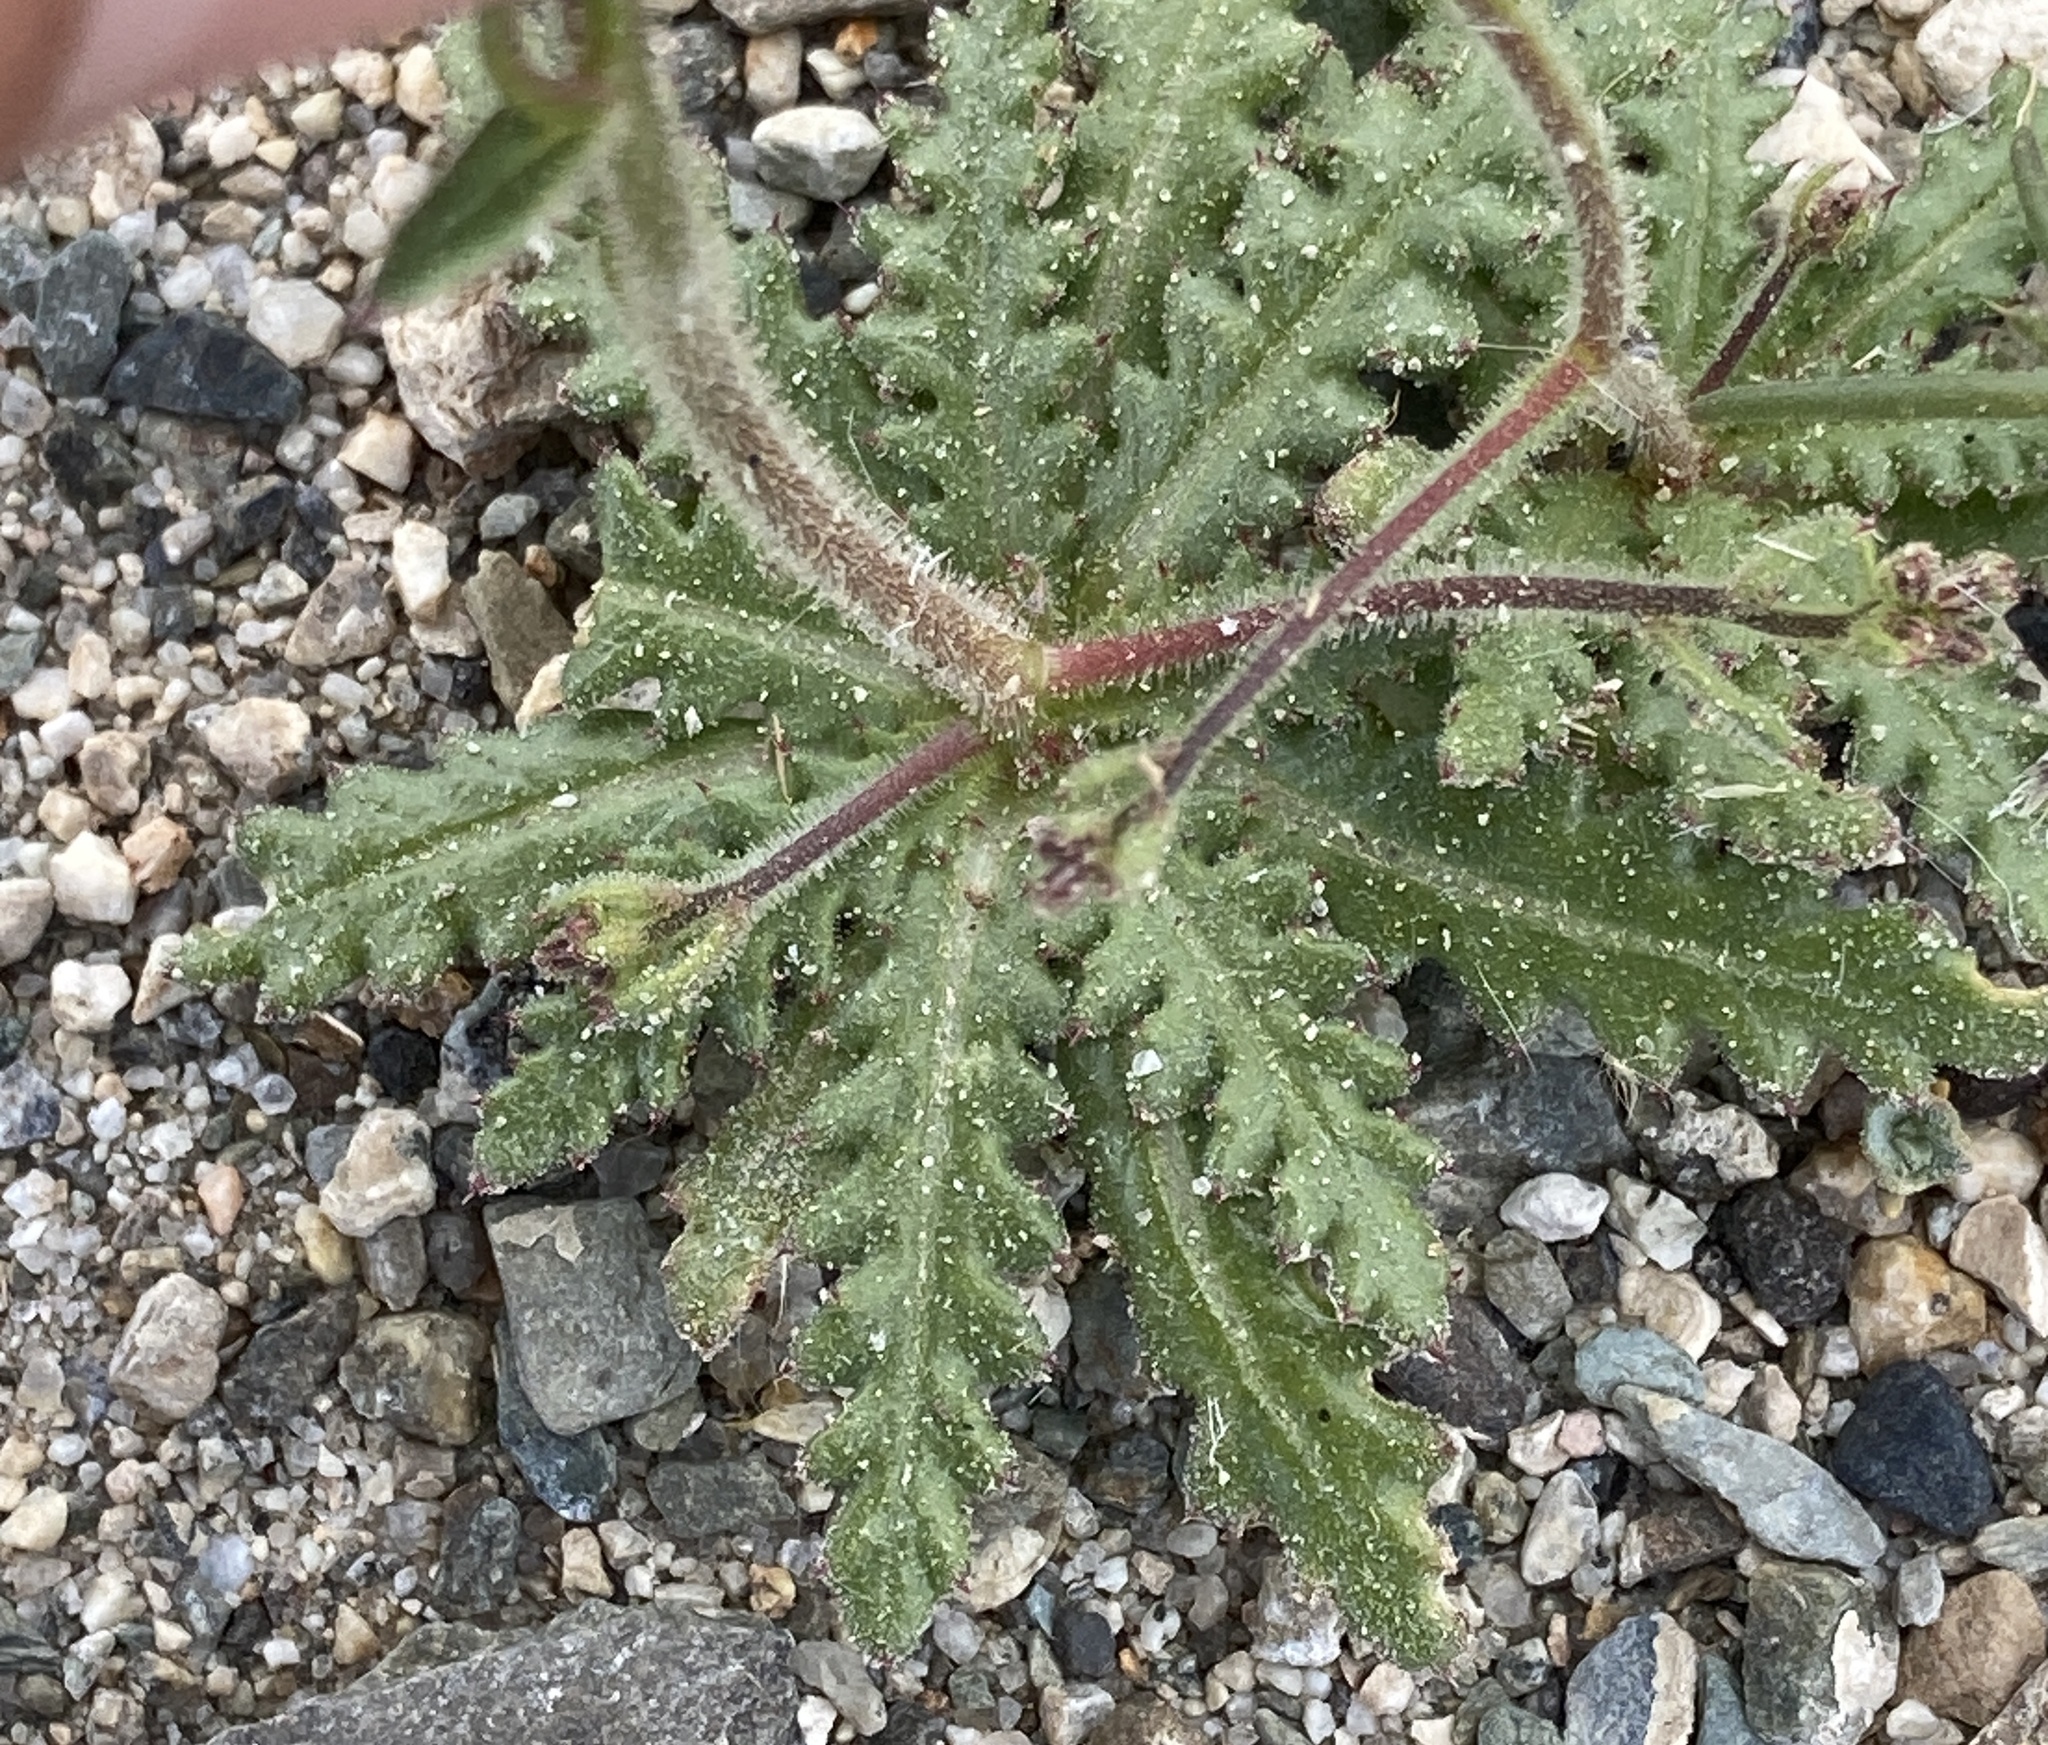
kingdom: Plantae
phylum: Tracheophyta
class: Magnoliopsida
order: Ericales
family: Polemoniaceae
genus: Aliciella
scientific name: Aliciella leptomeria
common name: Sand gilia
